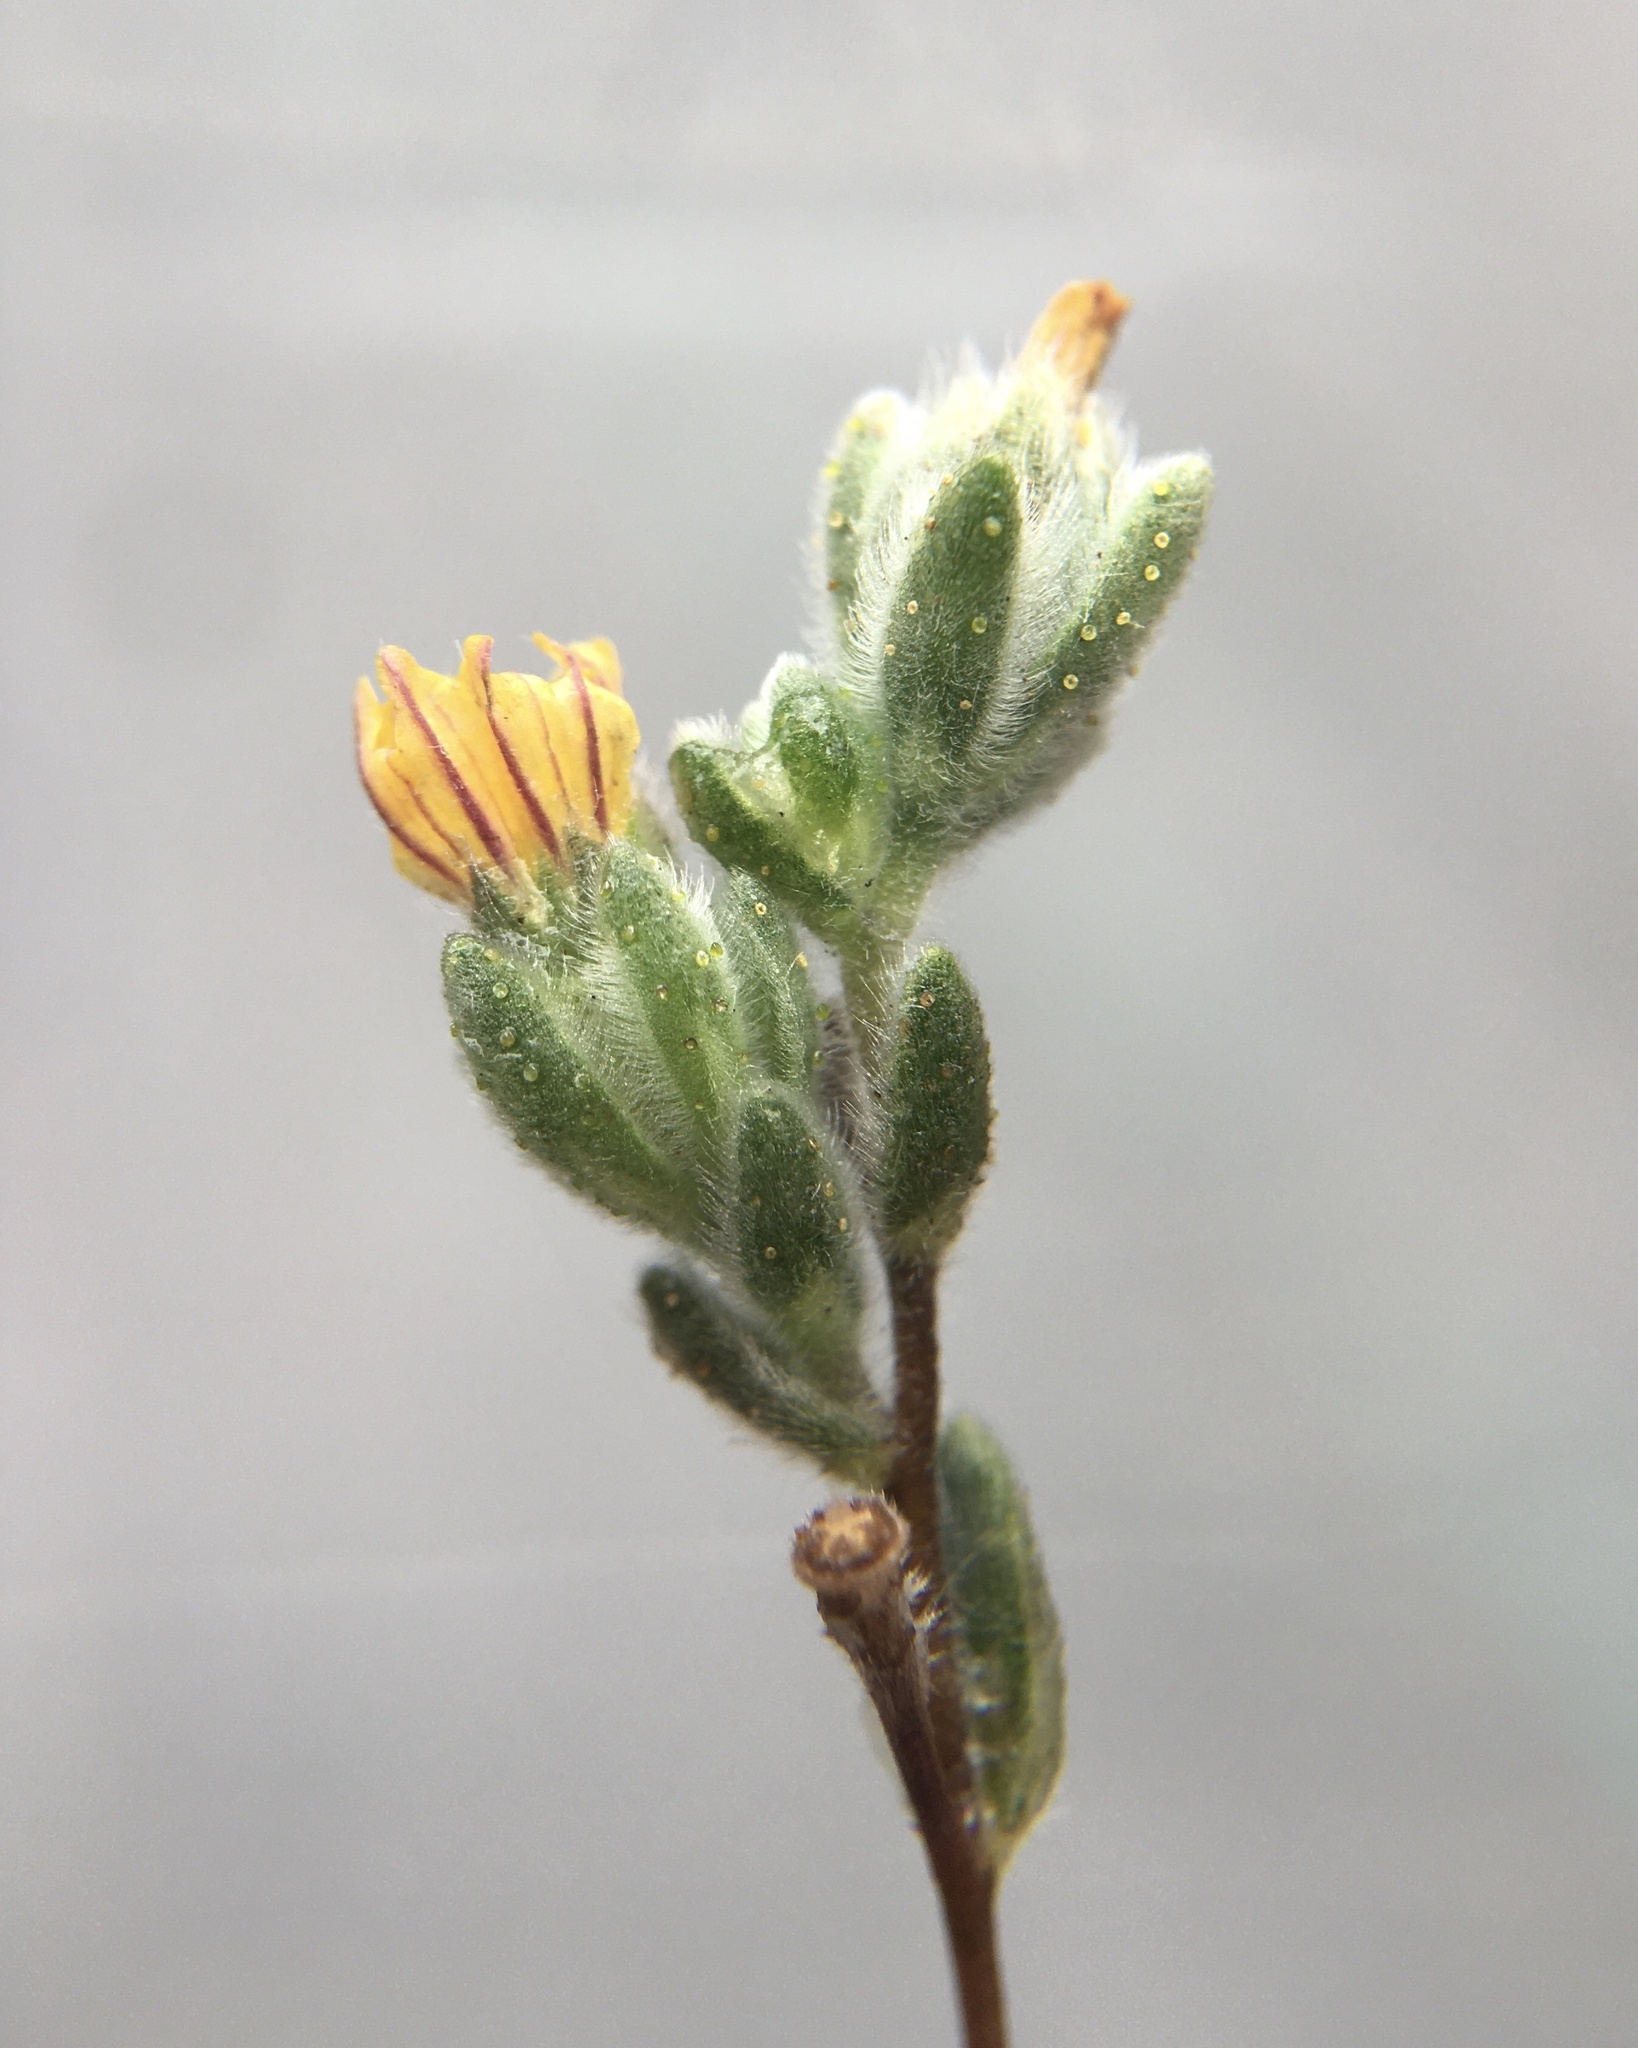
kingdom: Plantae
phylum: Tracheophyta
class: Magnoliopsida
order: Asterales
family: Asteraceae
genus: Lagophylla
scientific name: Lagophylla ramosissima
